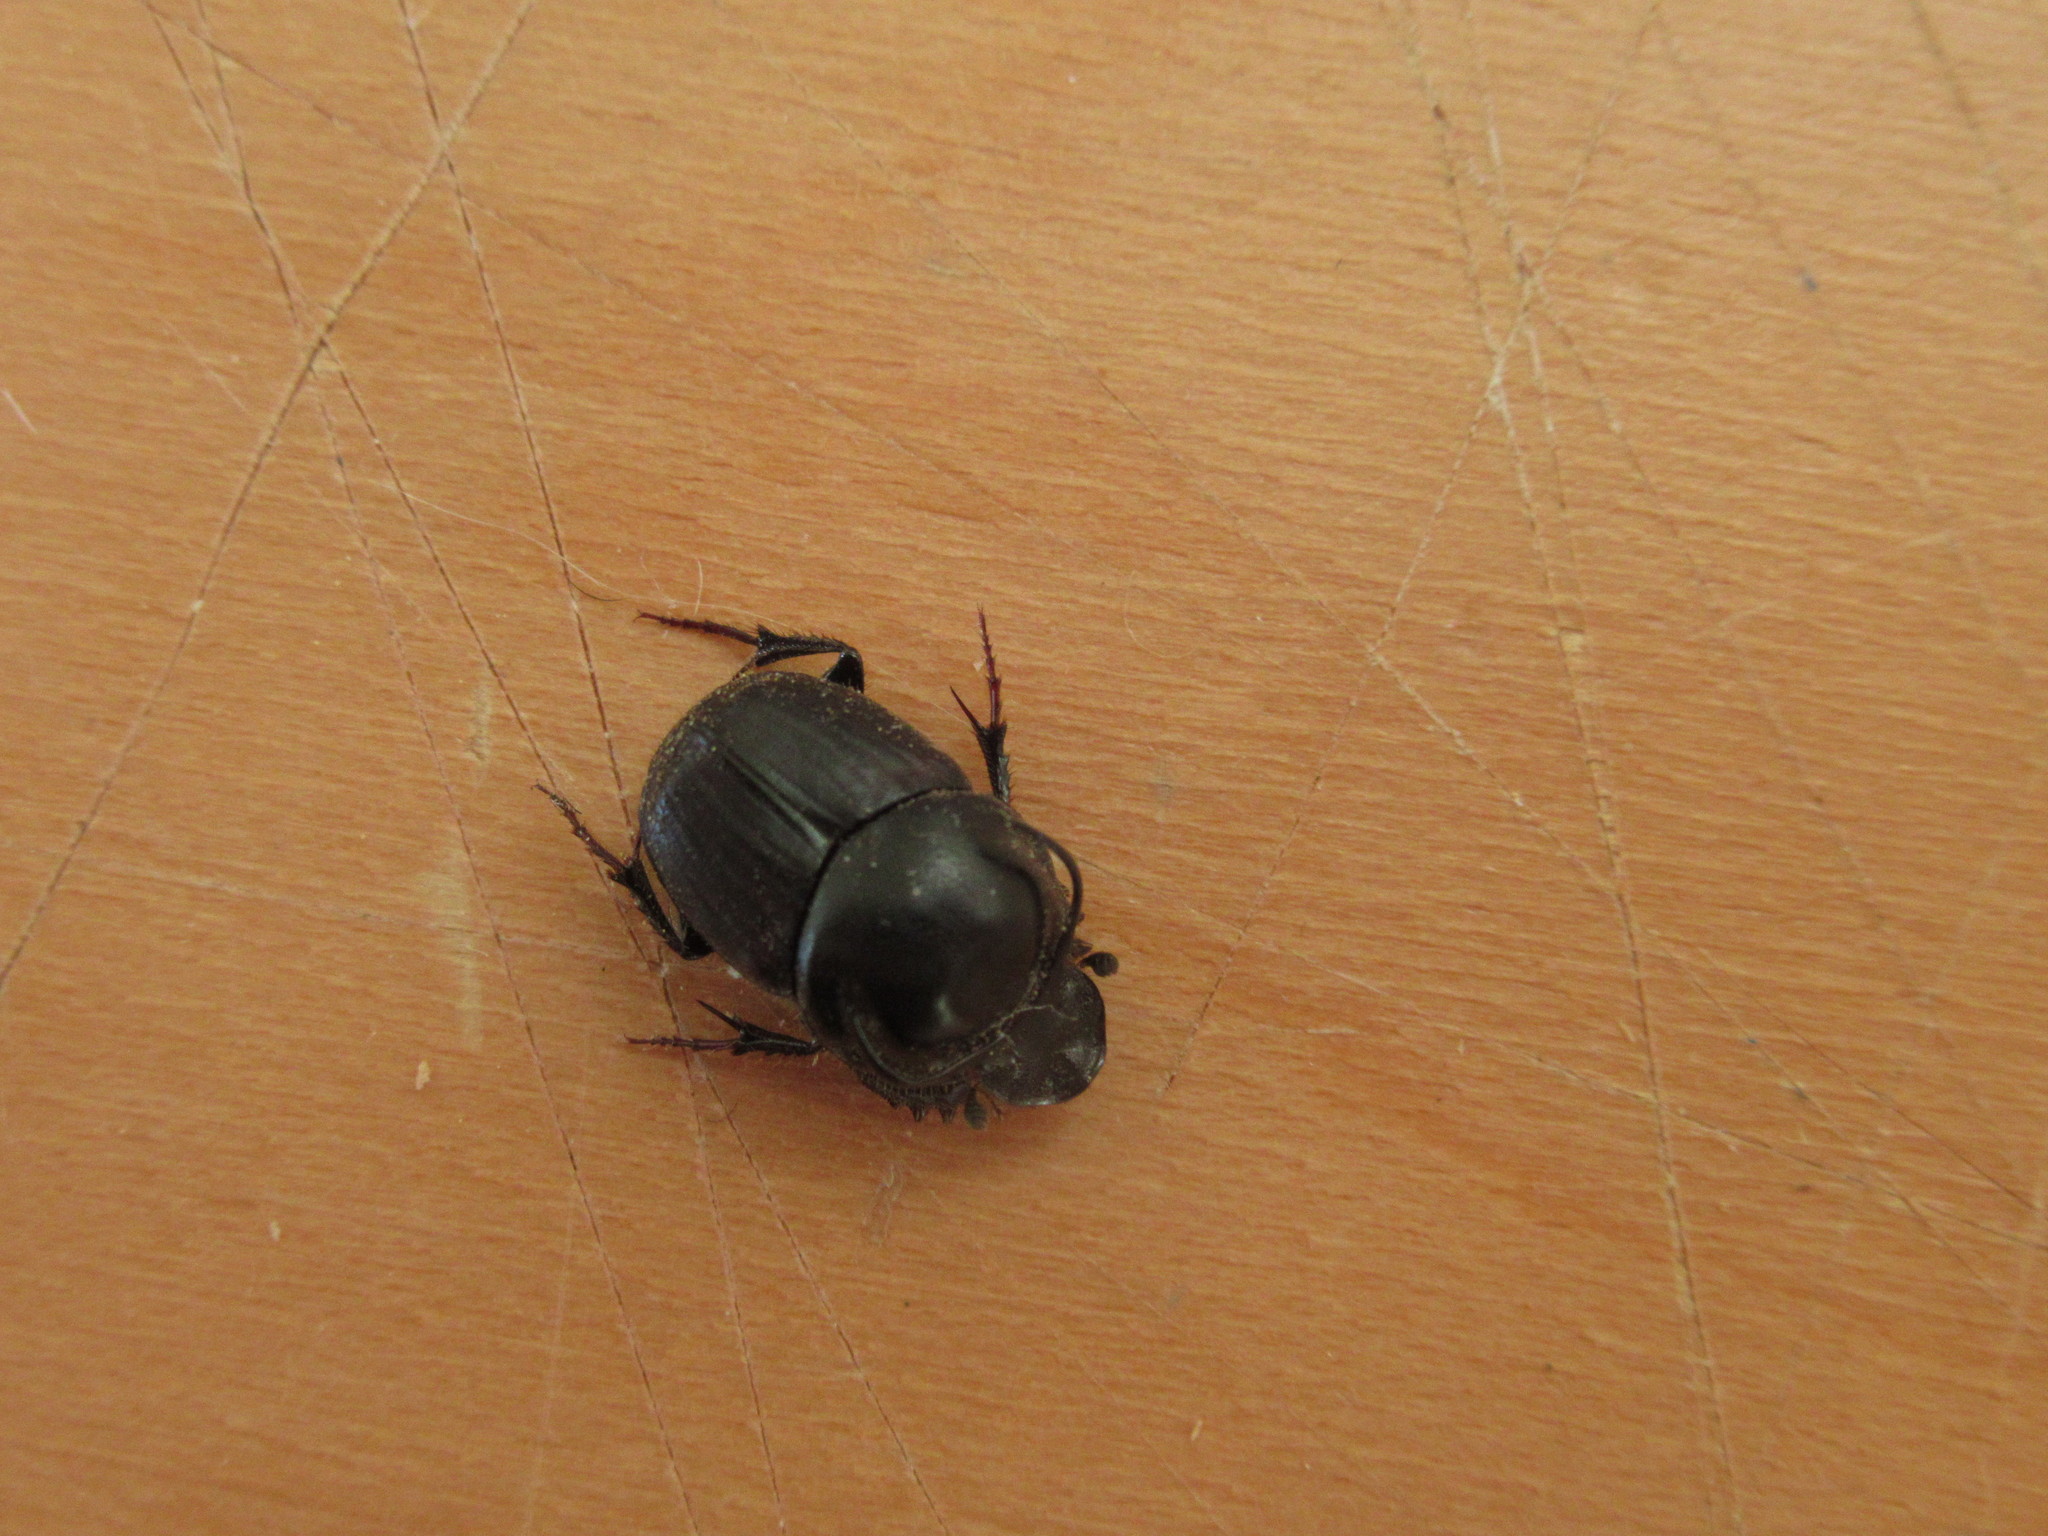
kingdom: Animalia
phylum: Arthropoda
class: Insecta
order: Coleoptera
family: Scarabaeidae
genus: Onthophagus
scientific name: Onthophagus taurus
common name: Bullhorned dung beetle
